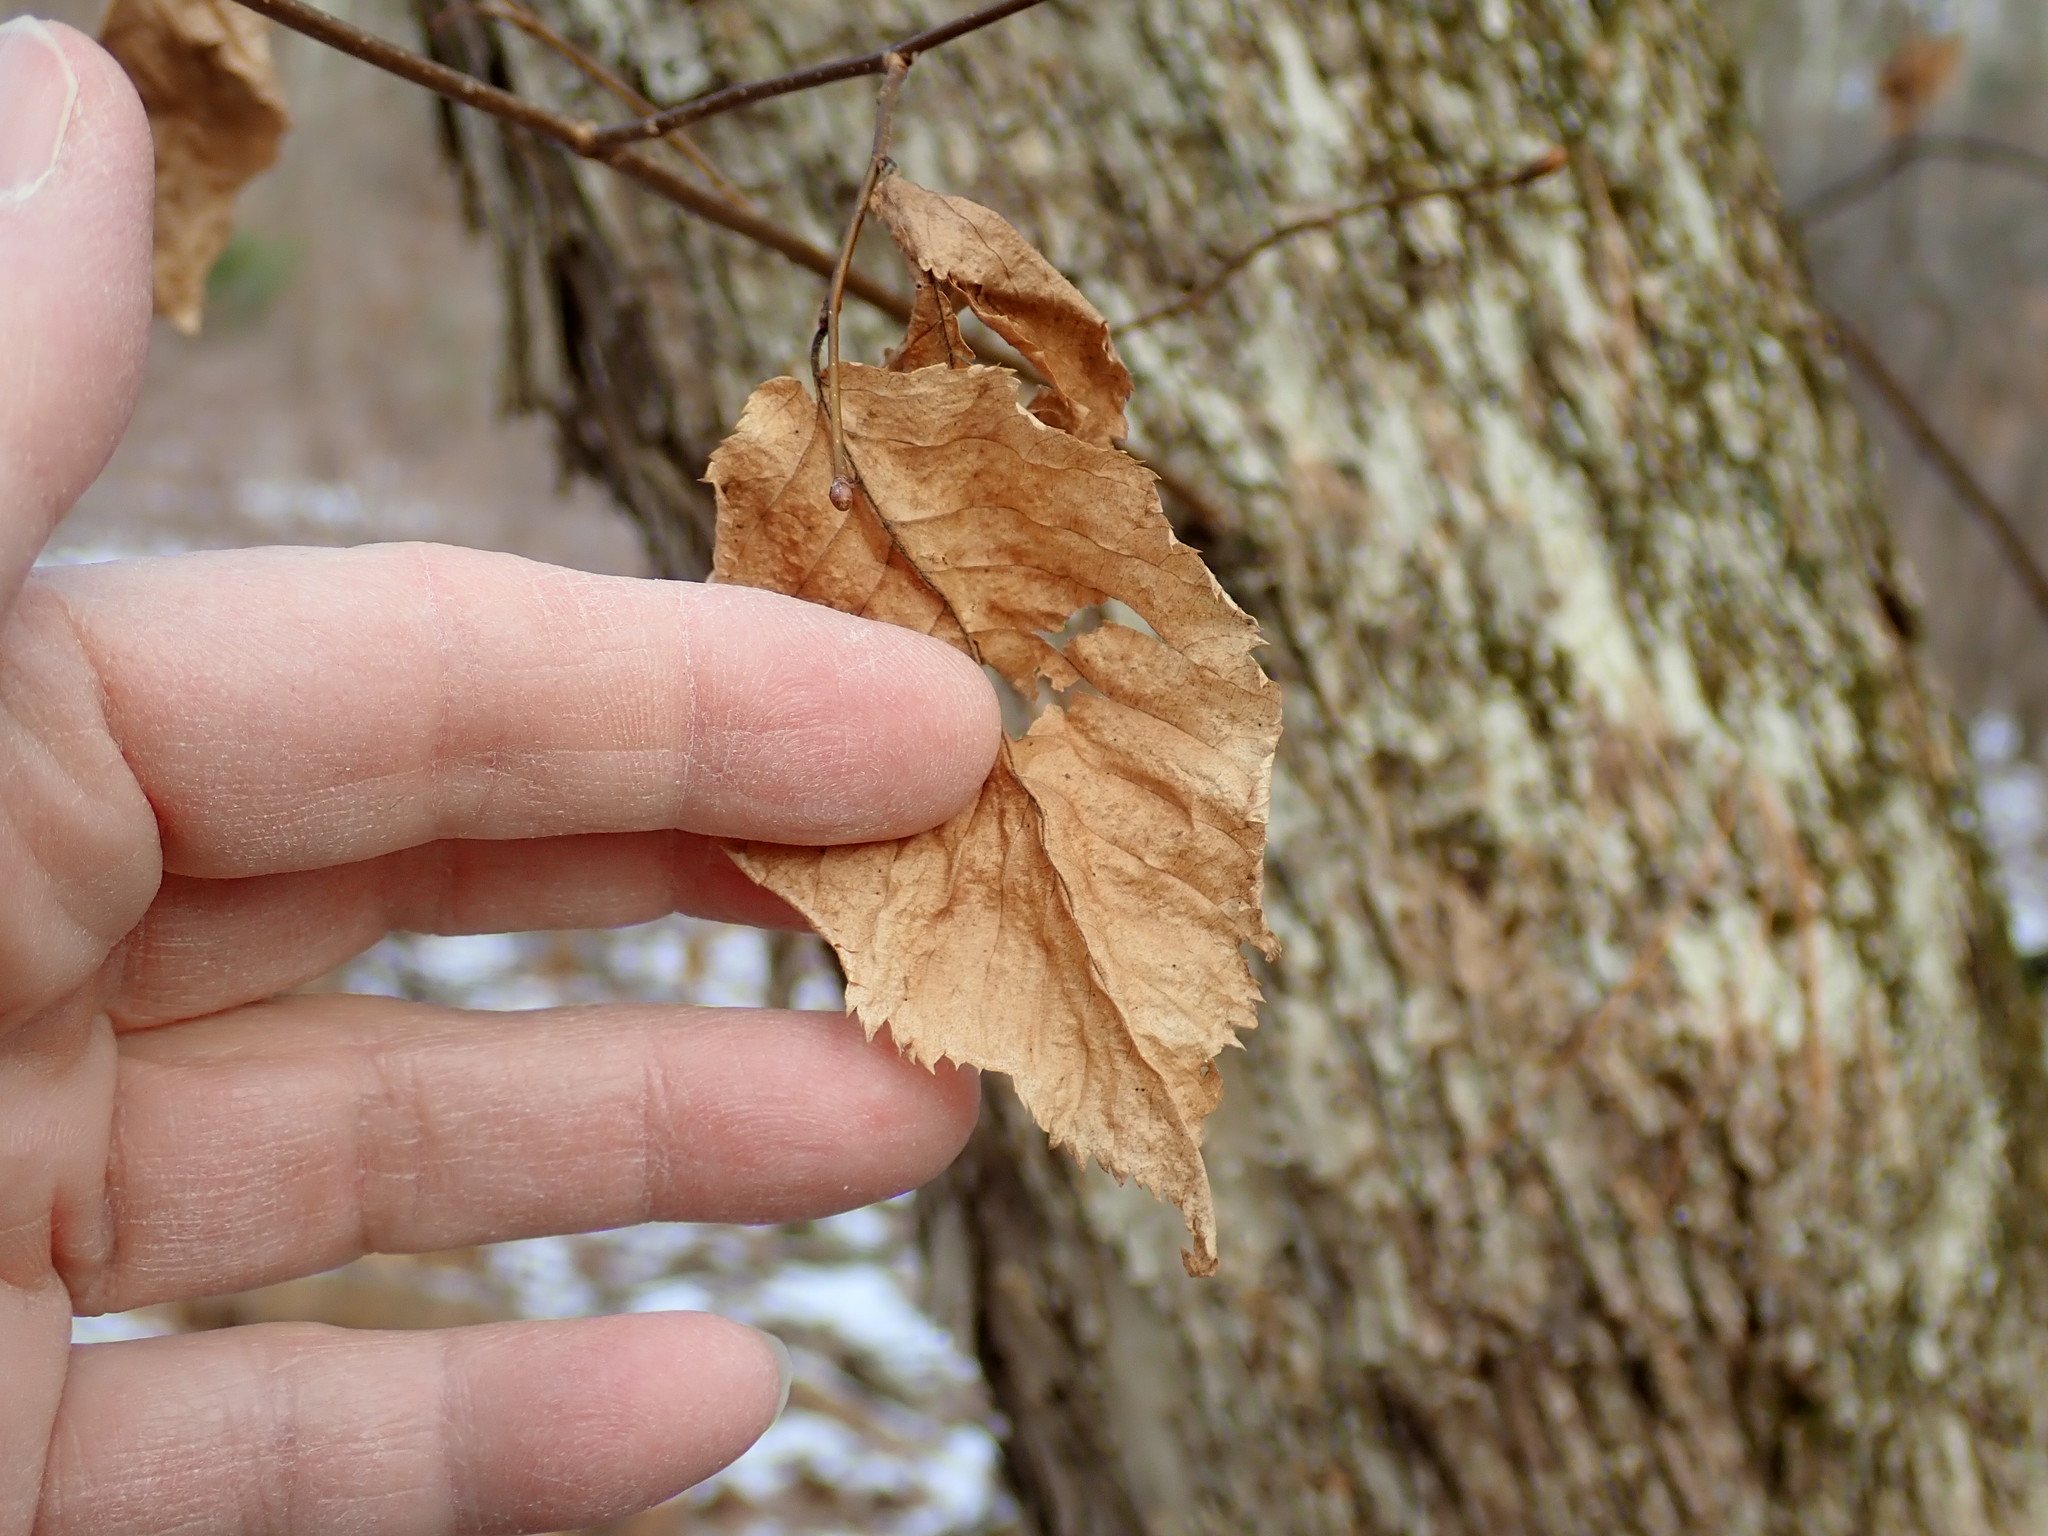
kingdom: Plantae
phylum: Tracheophyta
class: Magnoliopsida
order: Fagales
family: Betulaceae
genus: Ostrya
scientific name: Ostrya virginiana
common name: Ironwood
